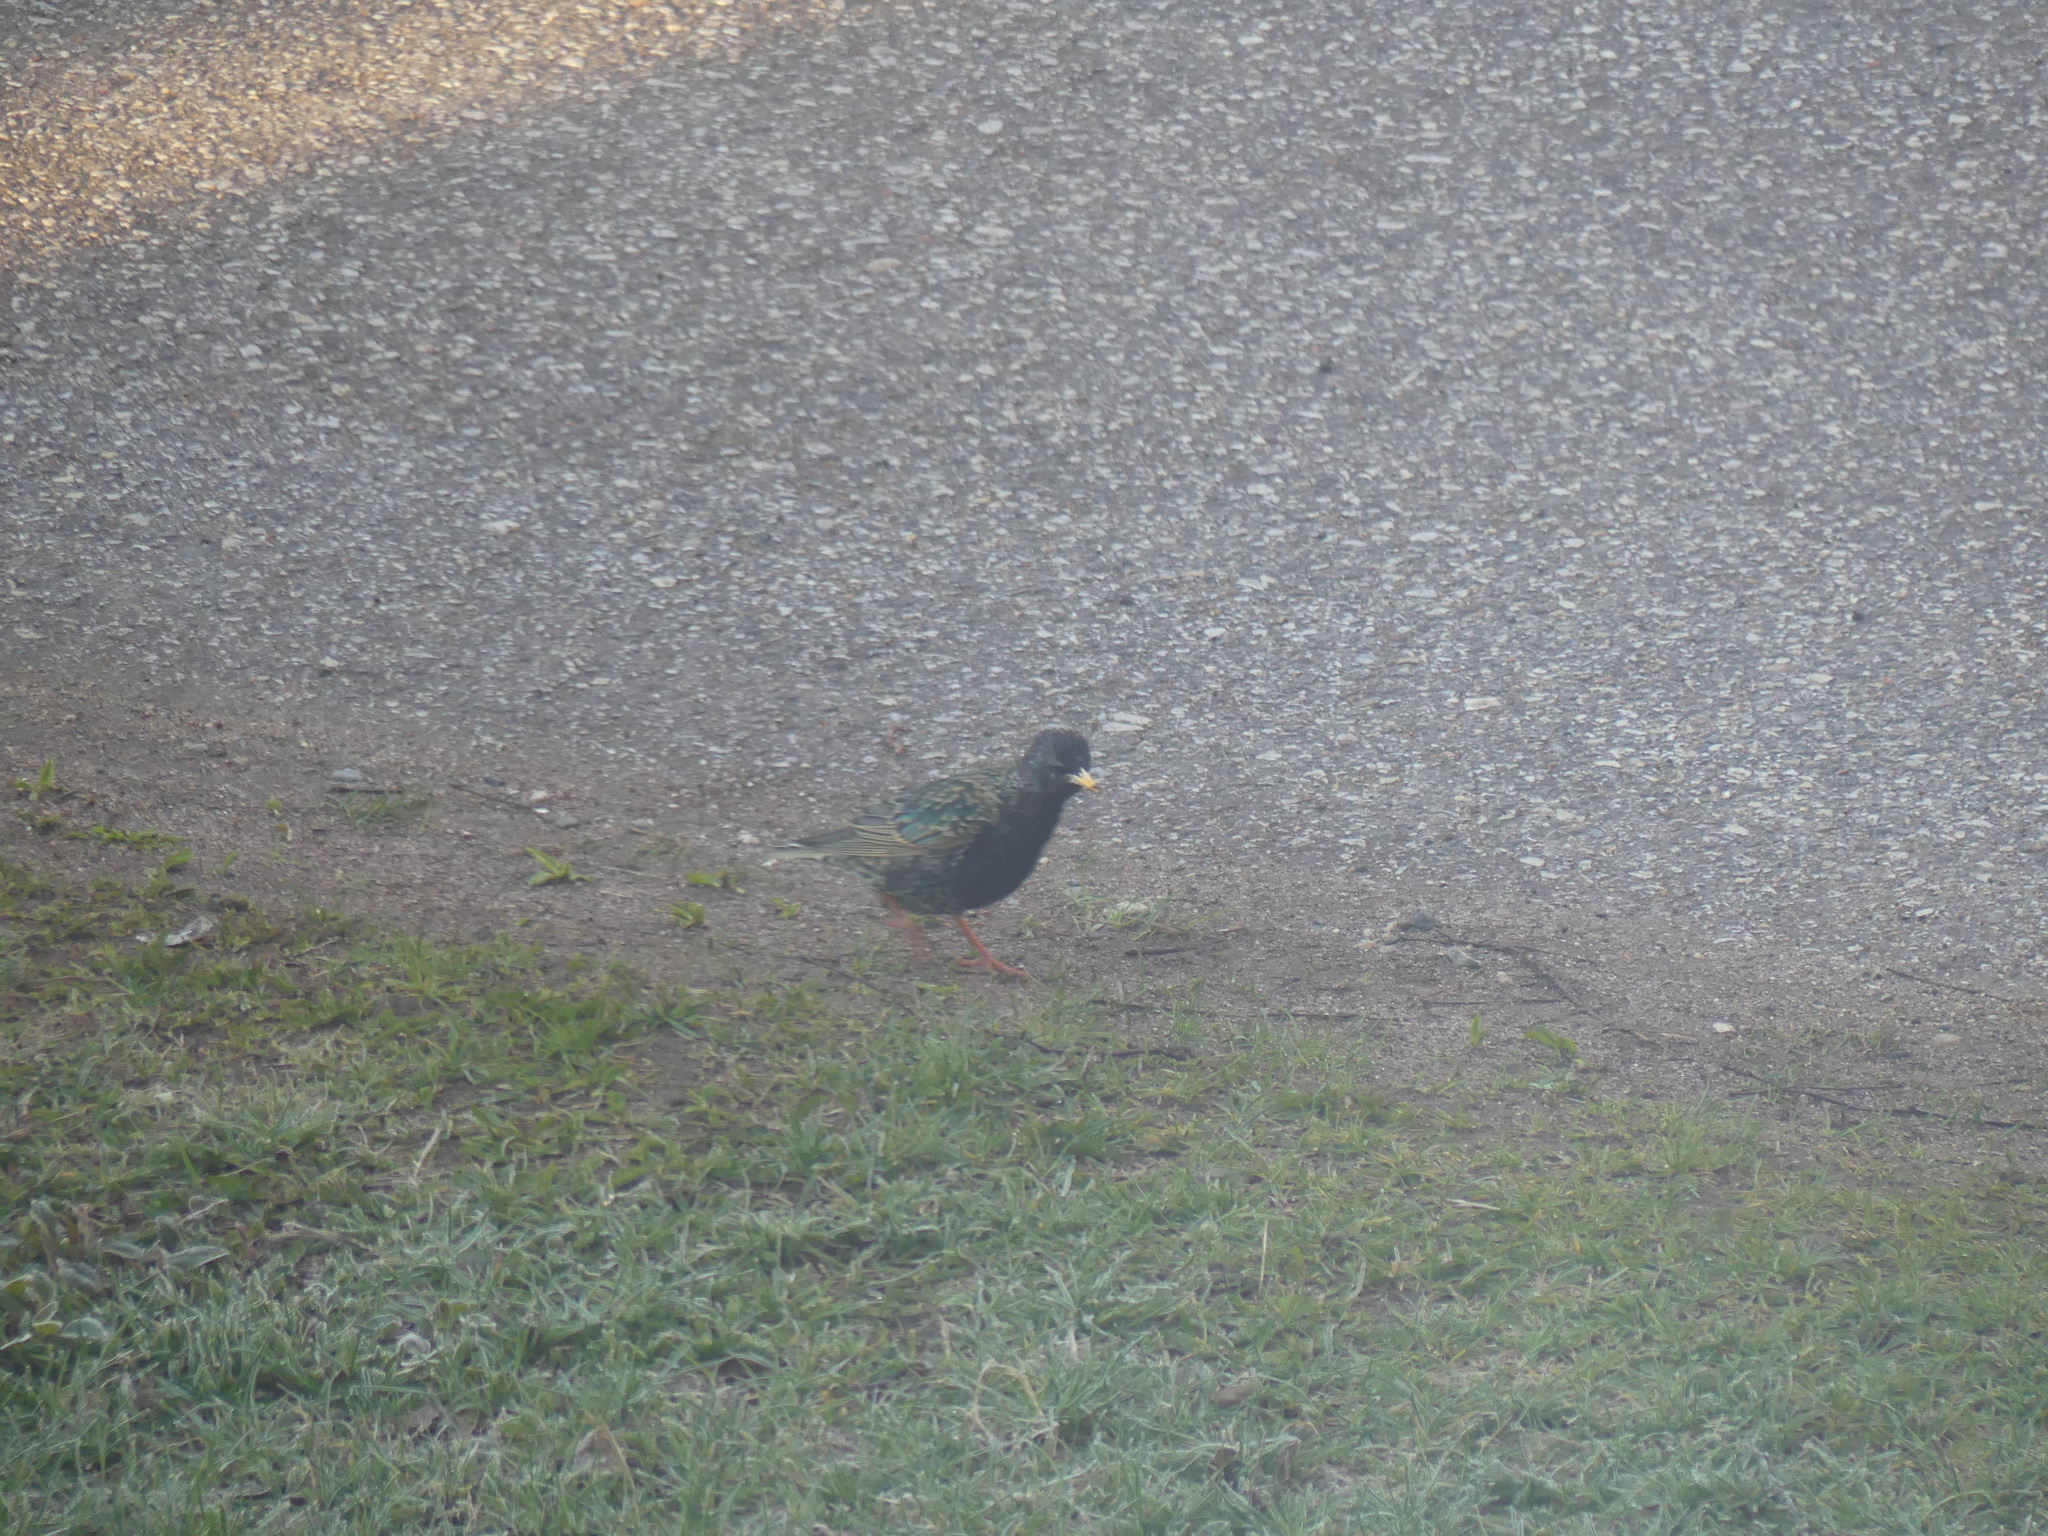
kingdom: Animalia
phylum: Chordata
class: Aves
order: Passeriformes
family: Sturnidae
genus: Sturnus
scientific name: Sturnus vulgaris
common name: Common starling
